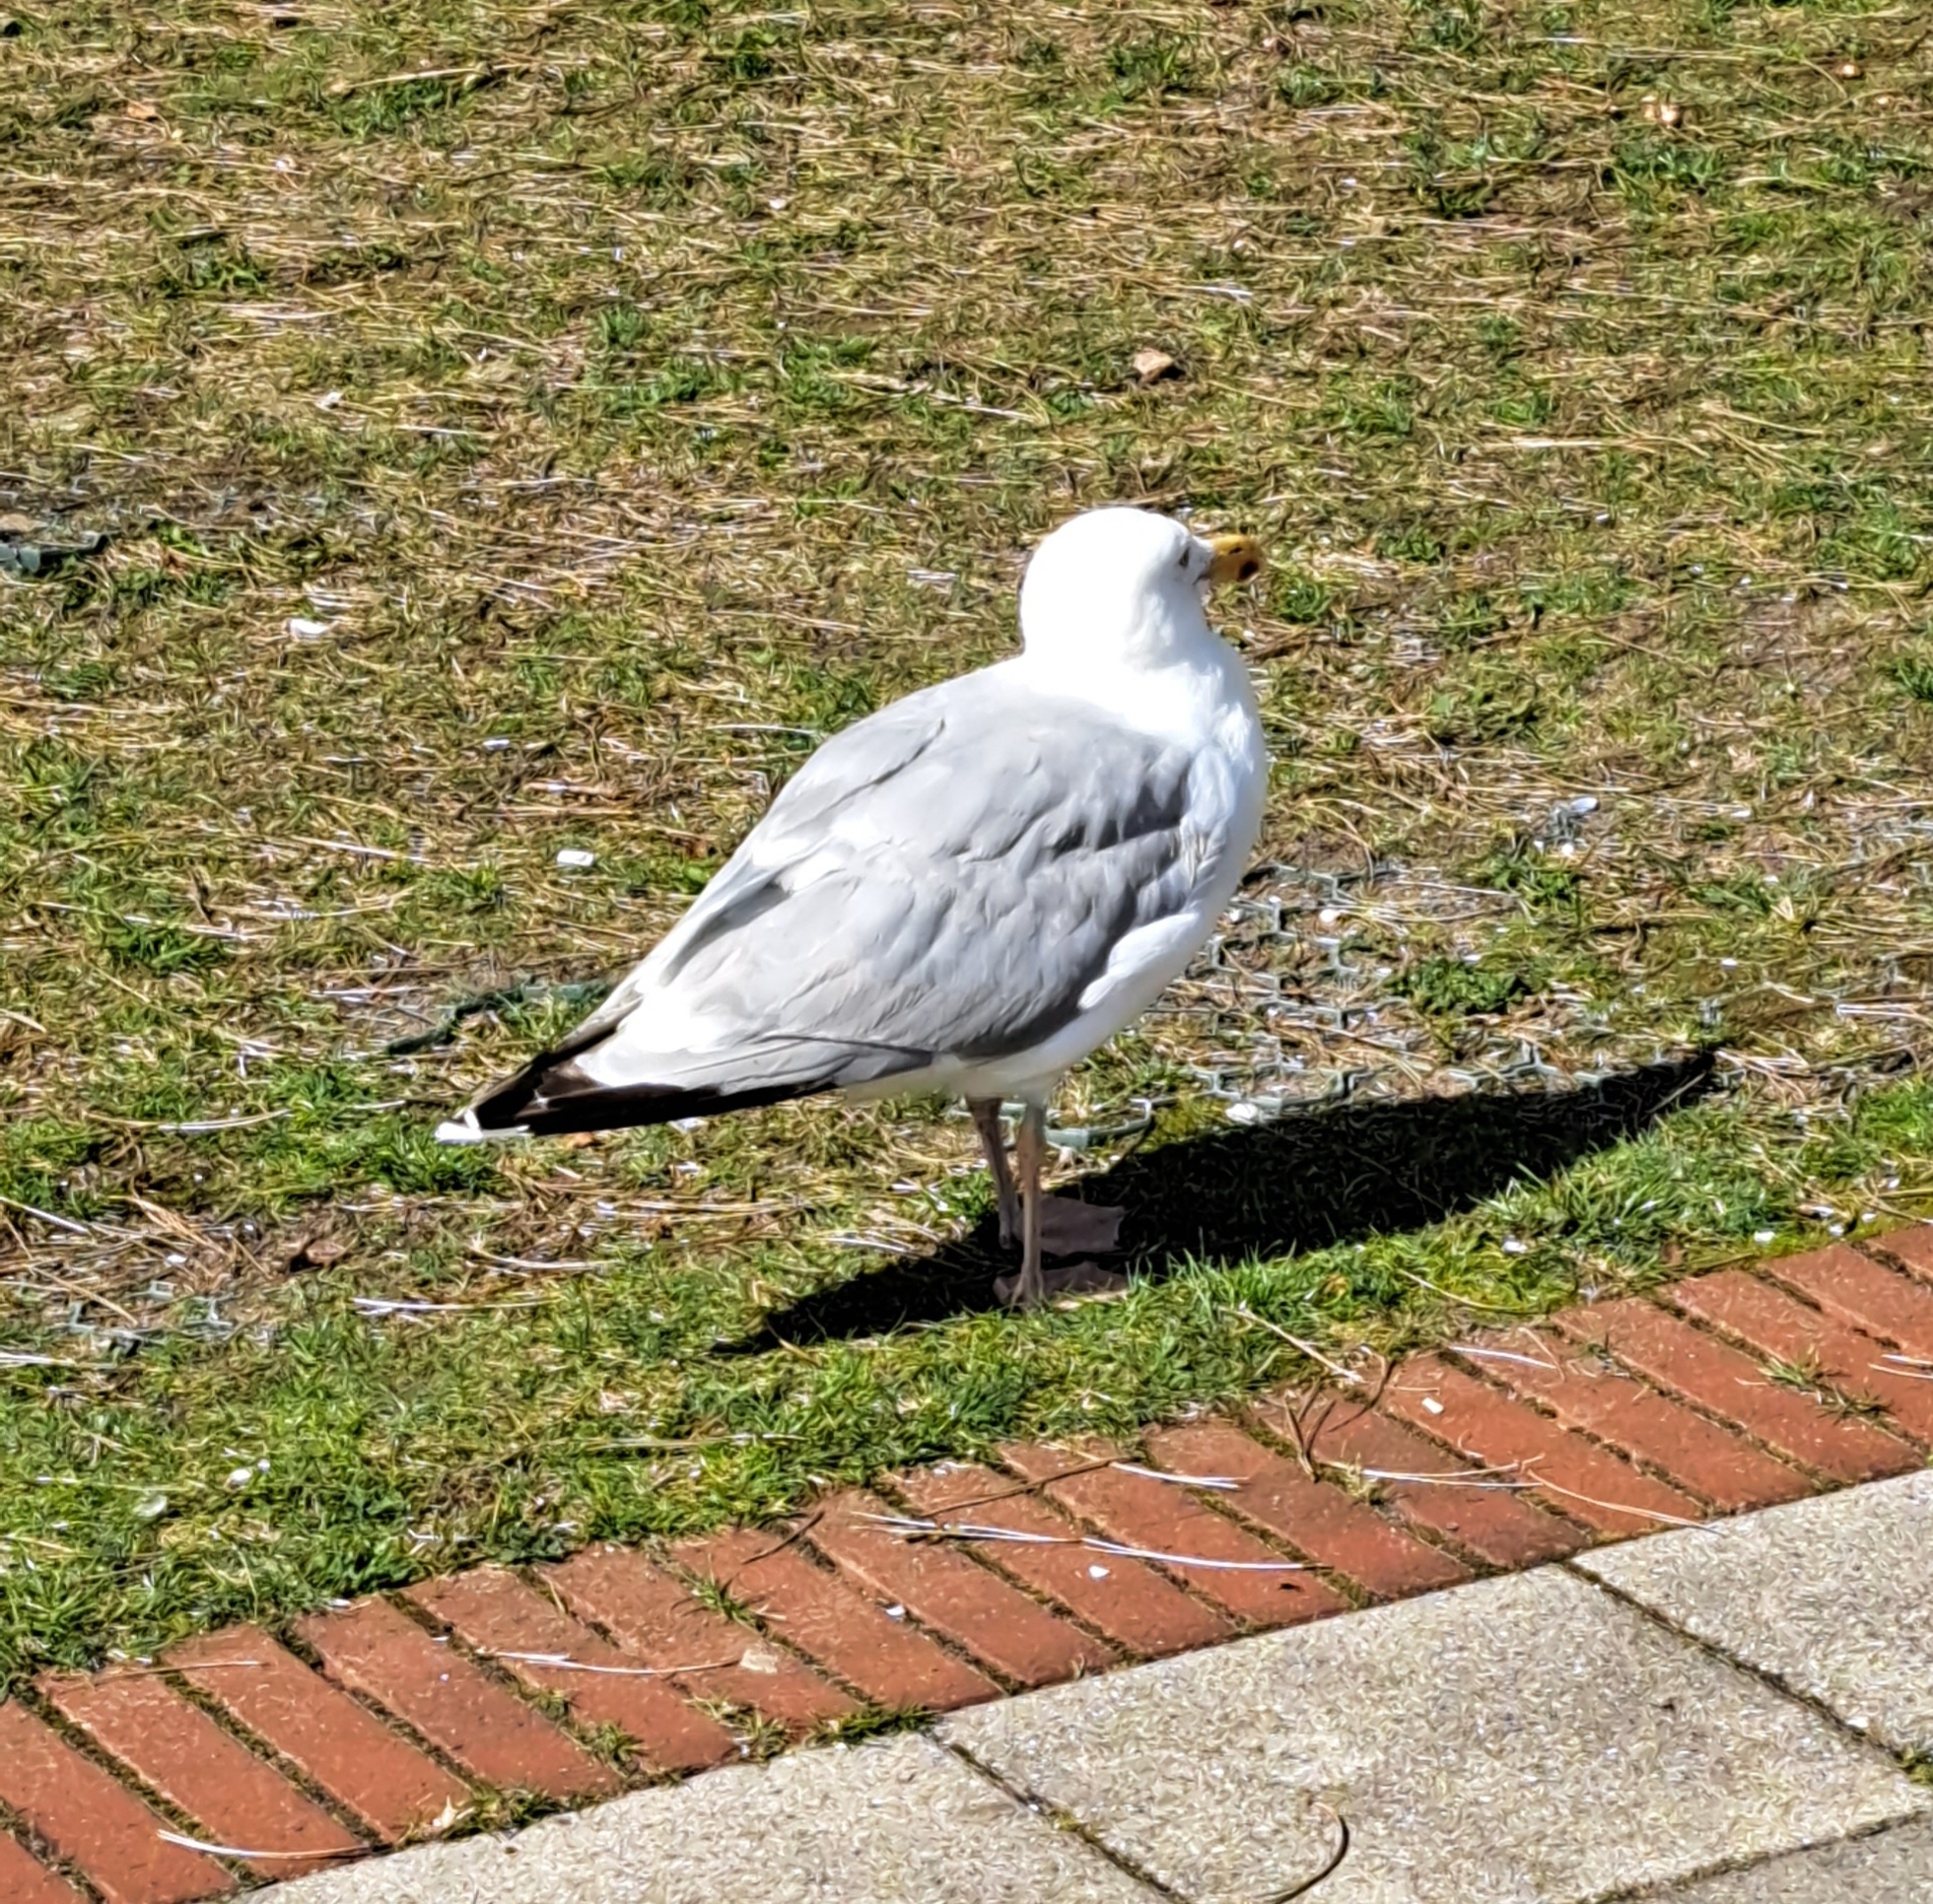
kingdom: Animalia
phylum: Chordata
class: Aves
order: Charadriiformes
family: Laridae
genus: Larus
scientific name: Larus argentatus
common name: Herring gull
